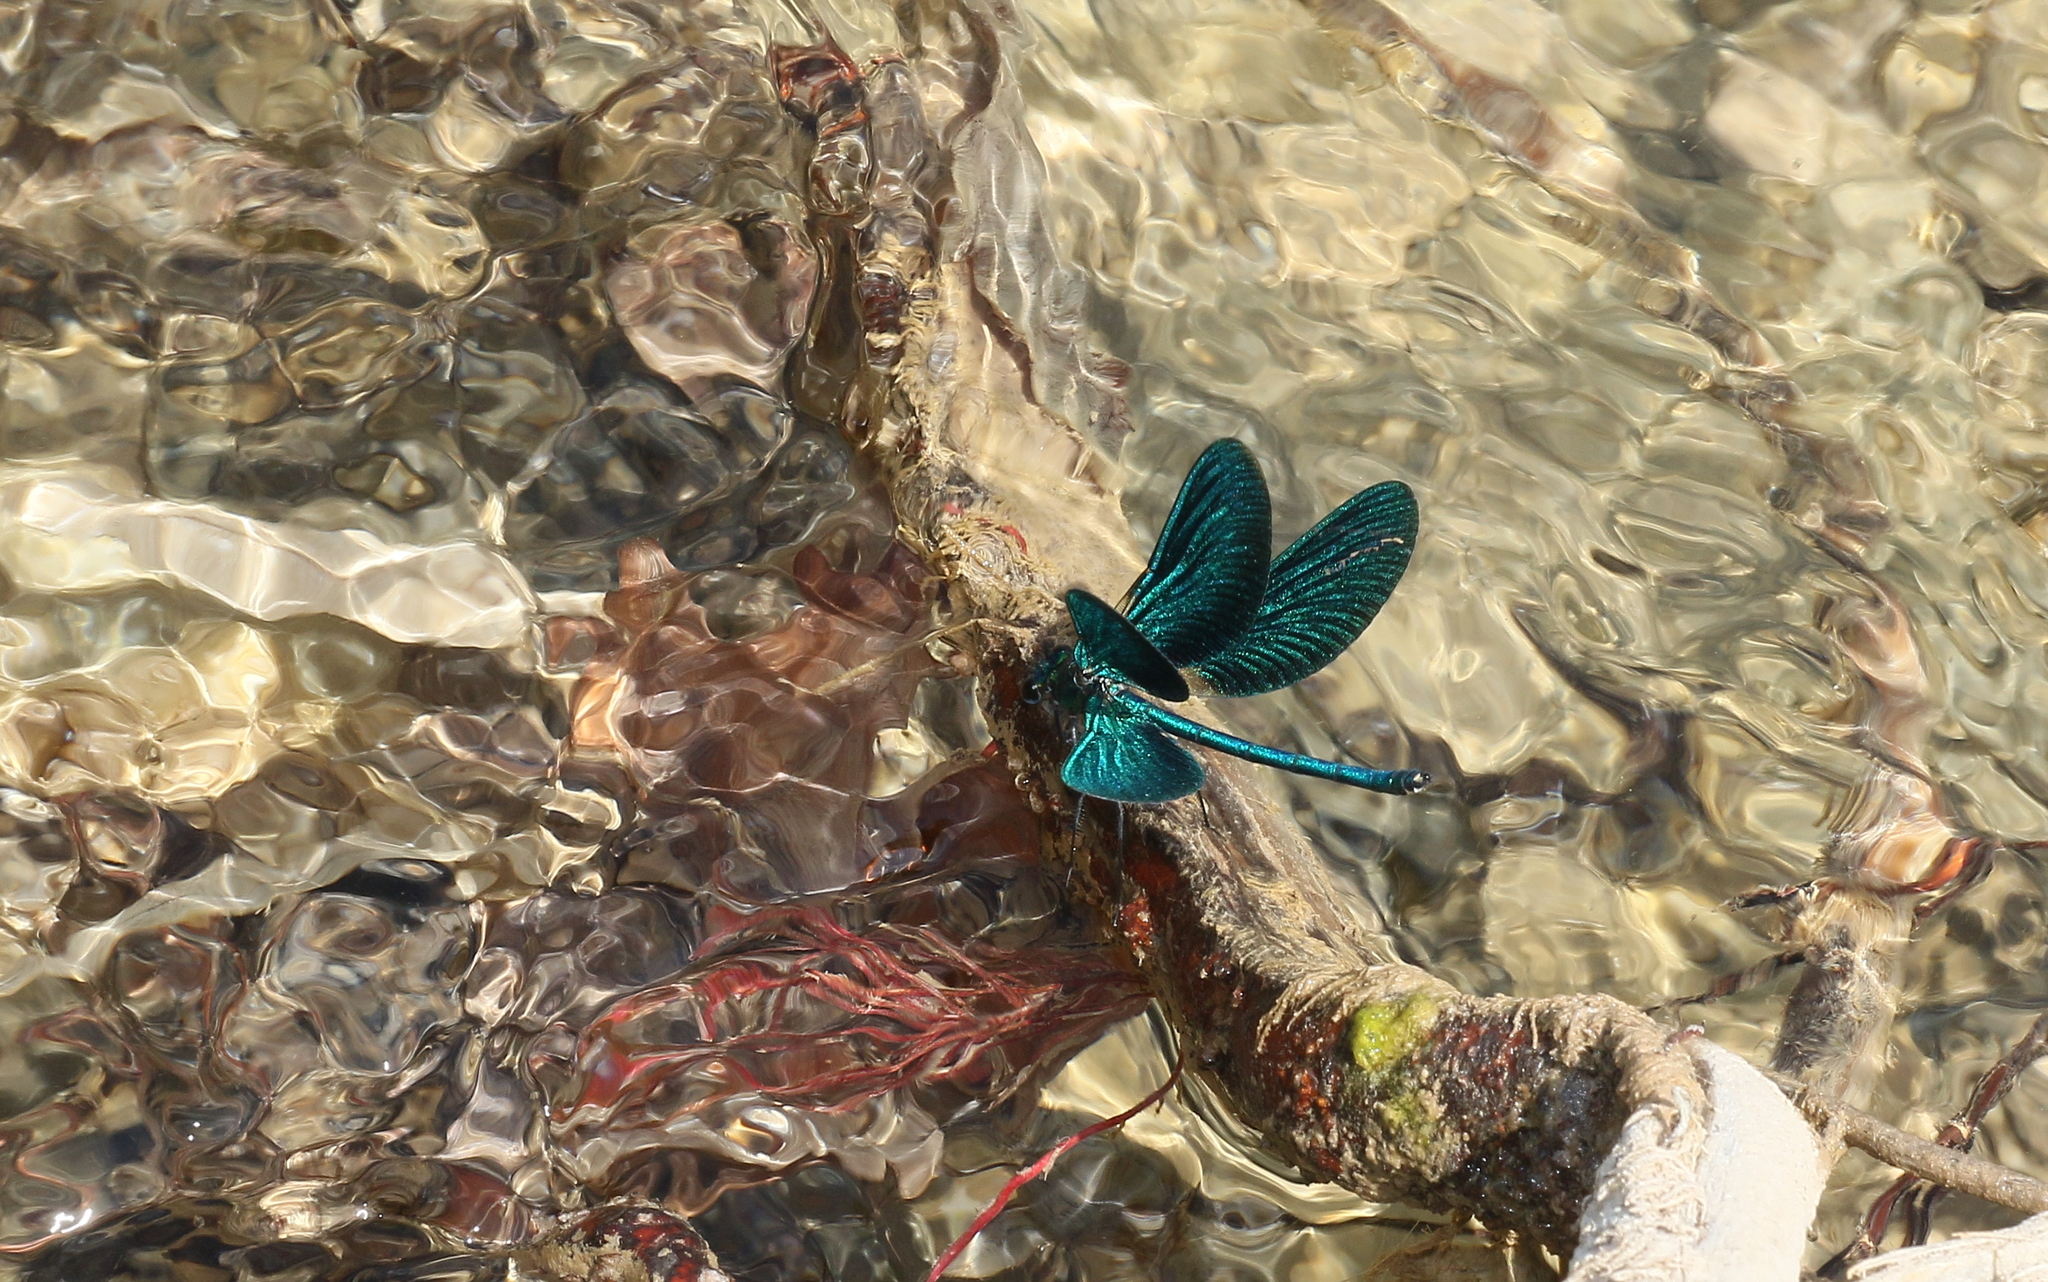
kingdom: Animalia
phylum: Arthropoda
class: Insecta
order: Odonata
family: Calopterygidae
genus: Calopteryx
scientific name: Calopteryx virgo
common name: Beautiful demoiselle
